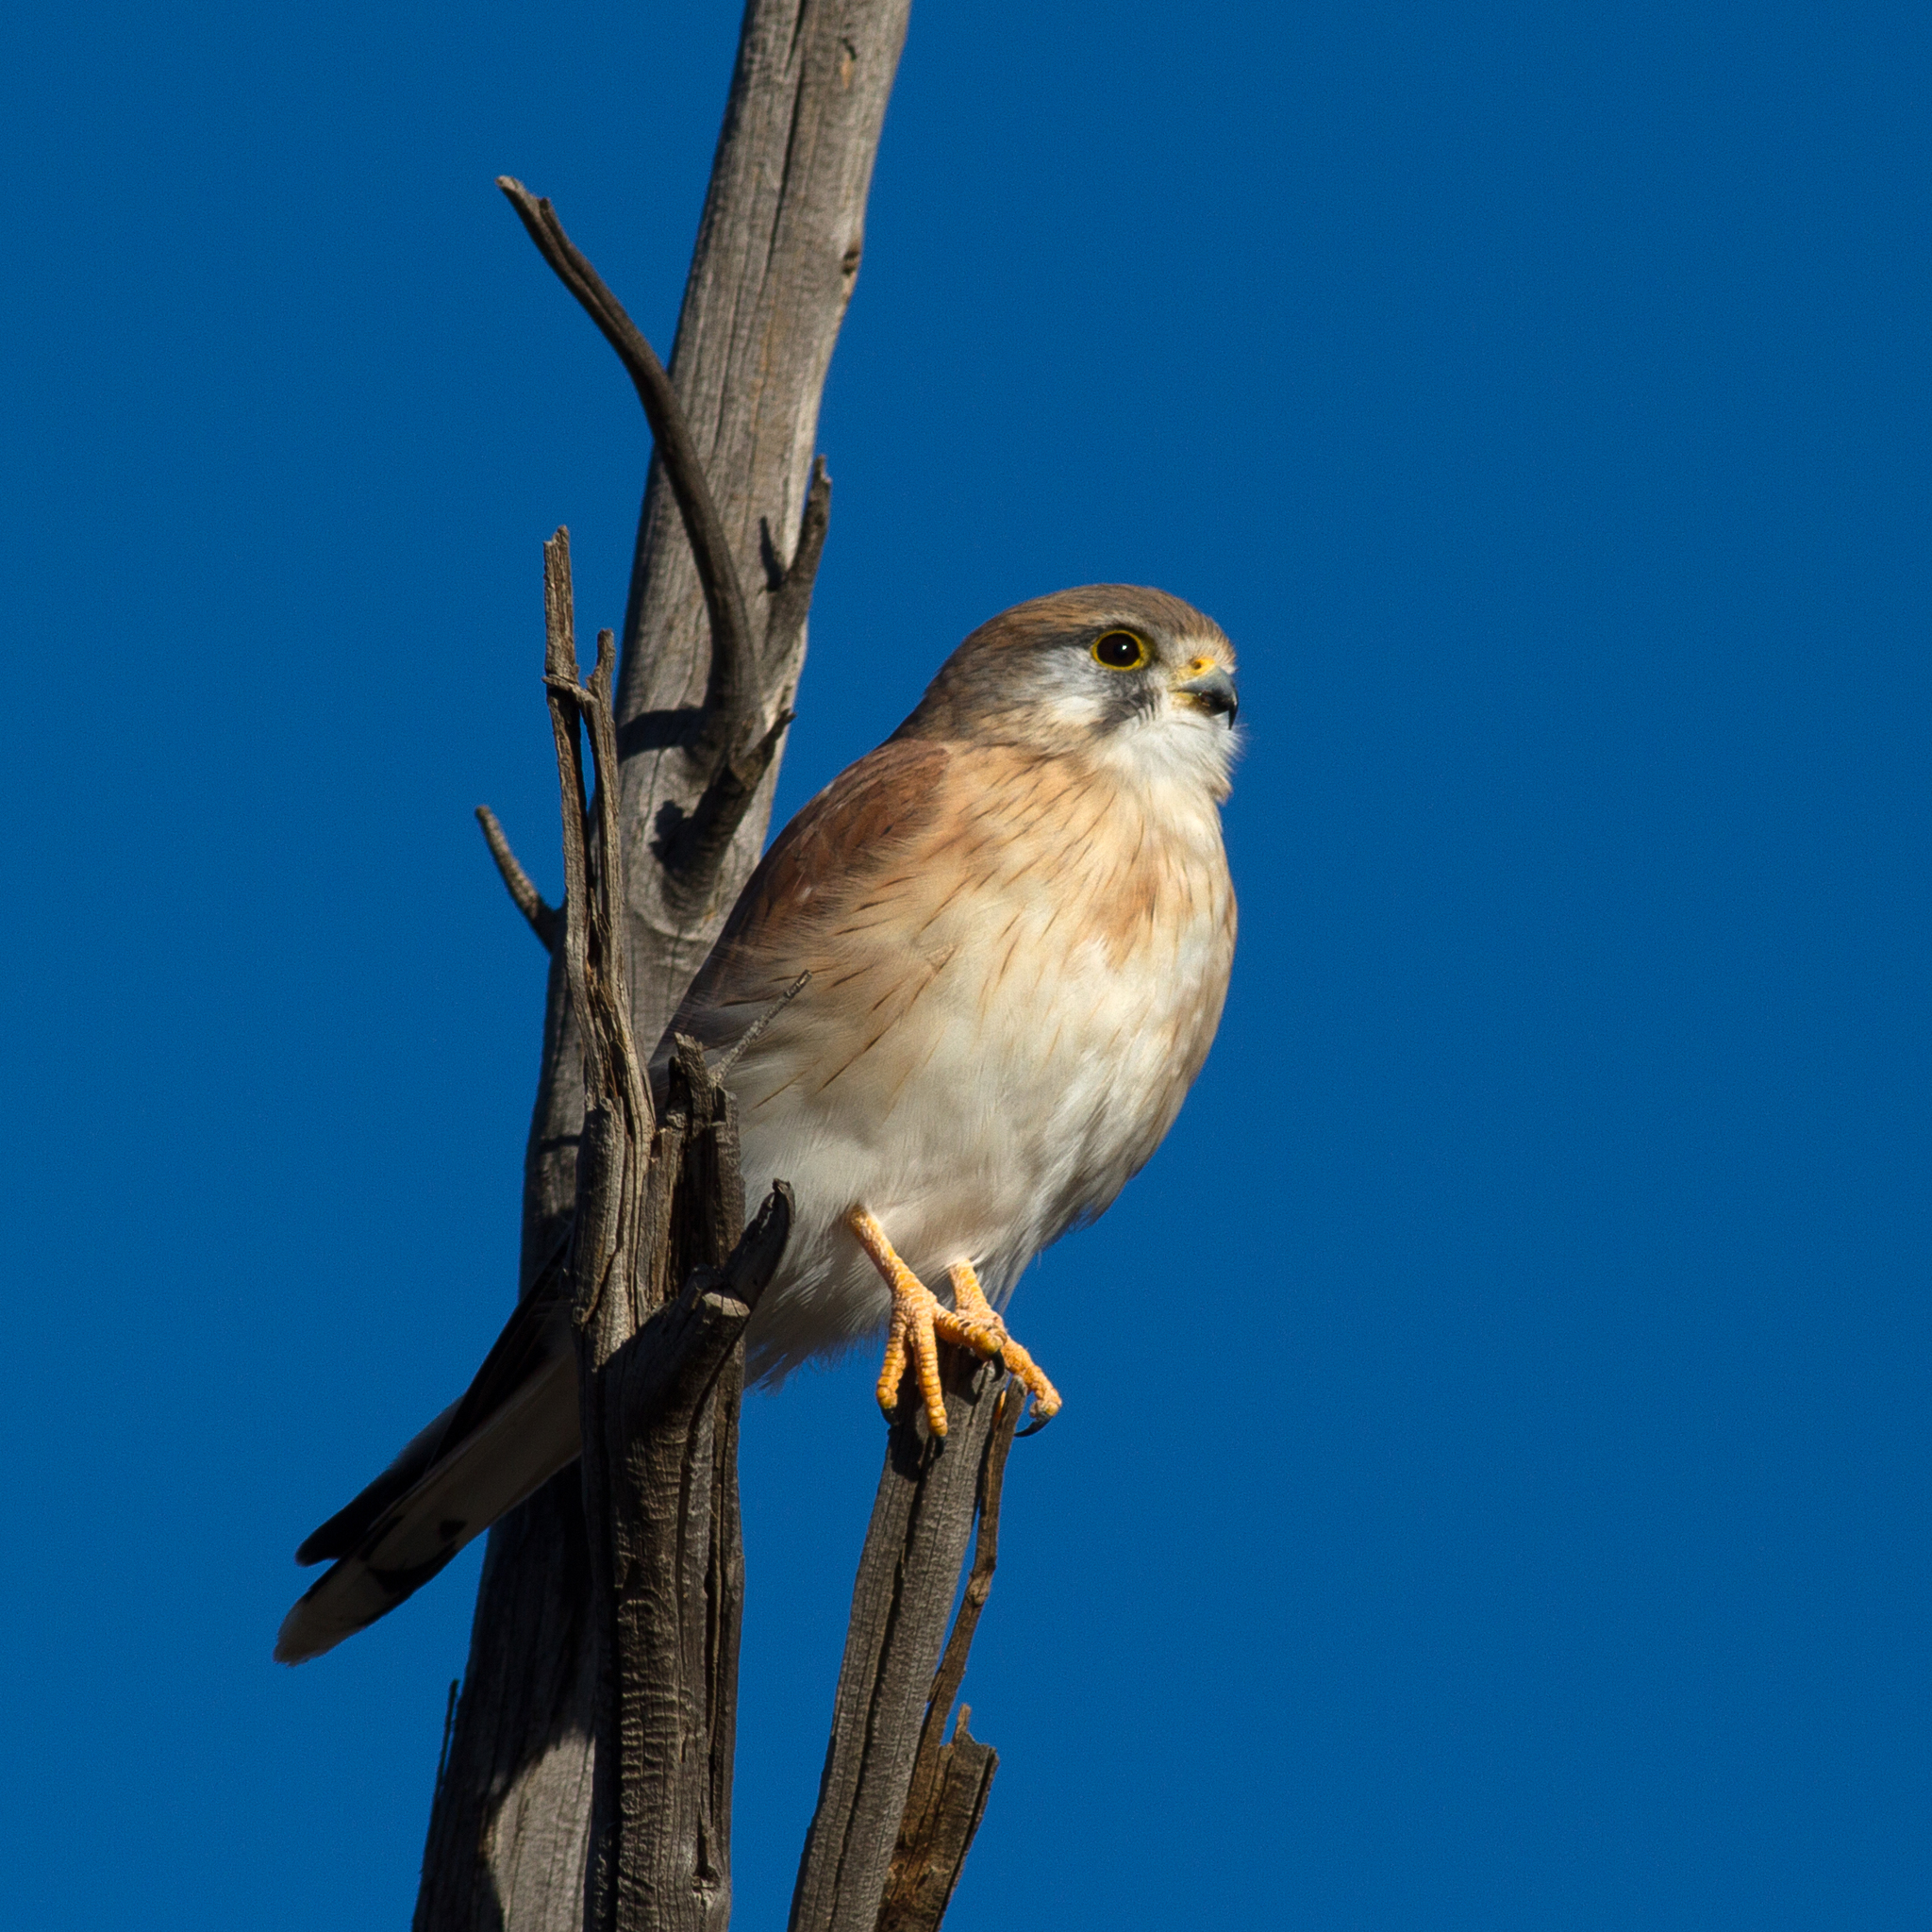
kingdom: Animalia
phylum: Chordata
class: Aves
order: Falconiformes
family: Falconidae
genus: Falco
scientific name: Falco cenchroides
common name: Nankeen kestrel
